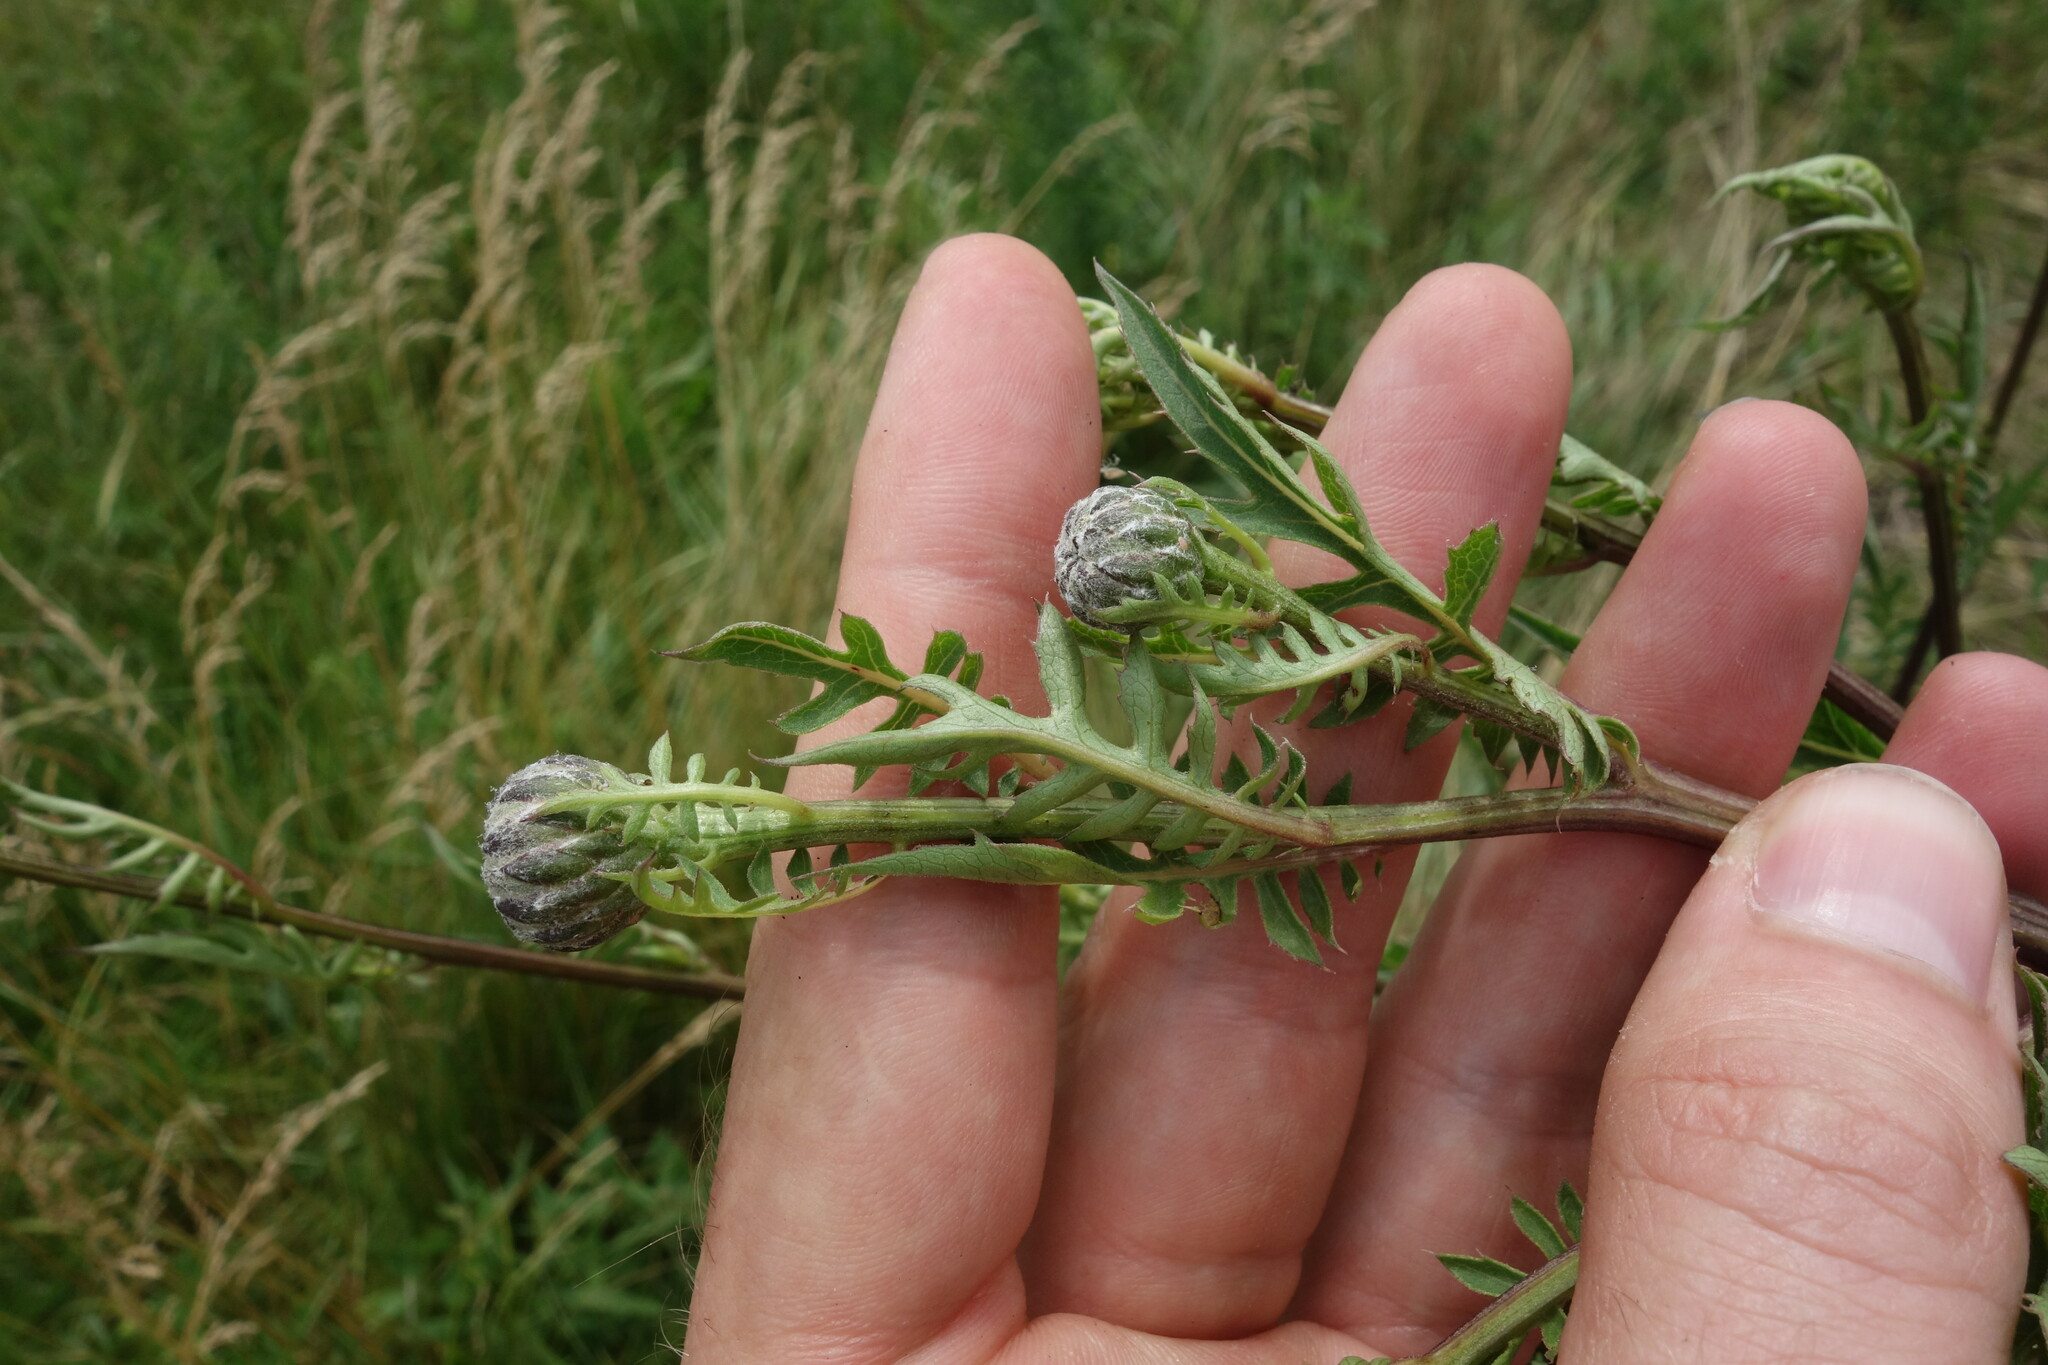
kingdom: Plantae
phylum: Tracheophyta
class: Magnoliopsida
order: Asterales
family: Asteraceae
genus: Serratula
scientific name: Serratula coronata
